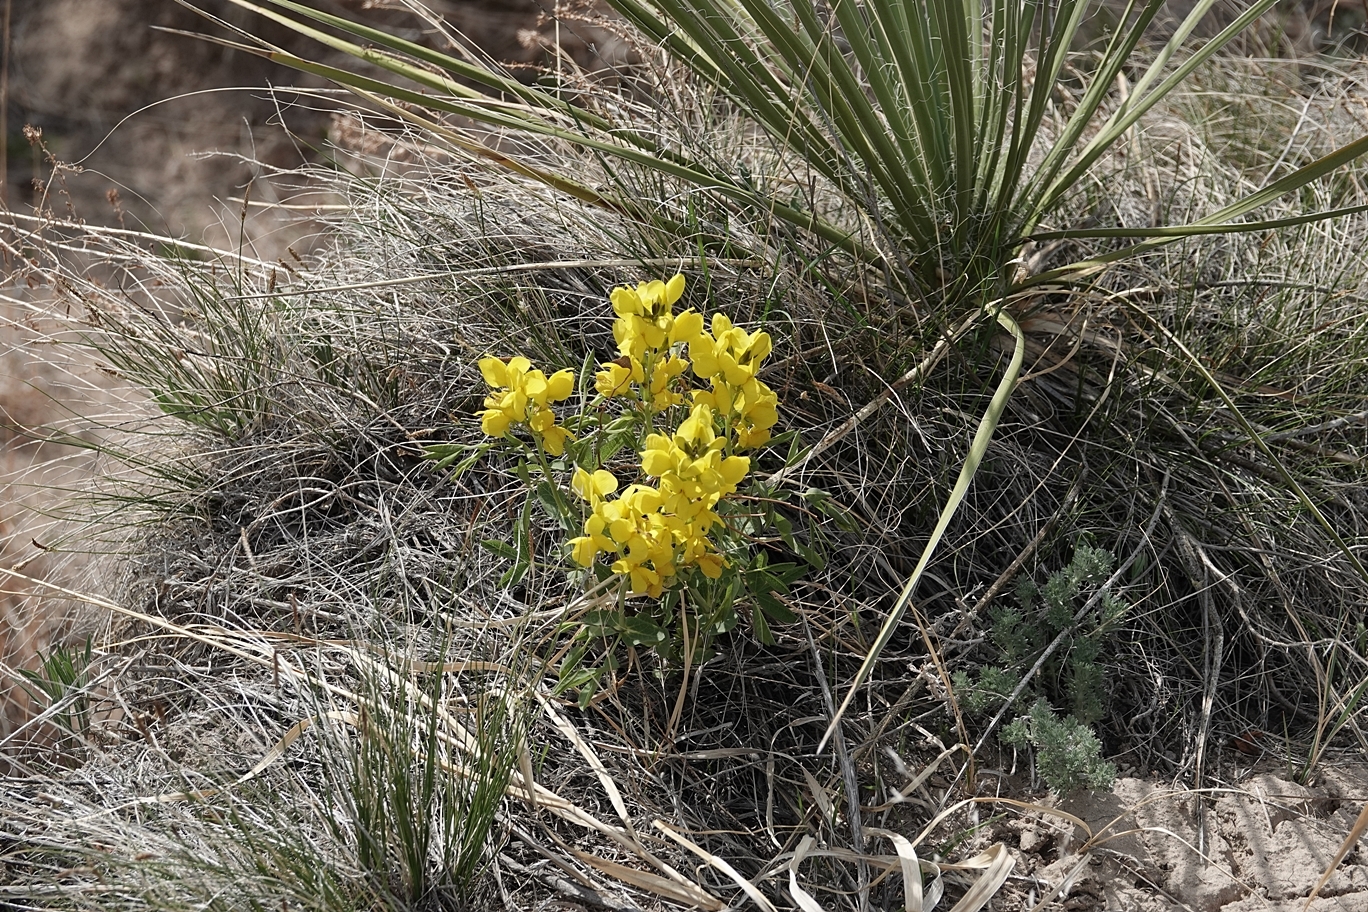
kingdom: Plantae
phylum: Tracheophyta
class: Magnoliopsida
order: Fabales
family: Fabaceae
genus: Thermopsis
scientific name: Thermopsis rhombifolia
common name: Circle-pod-pea
